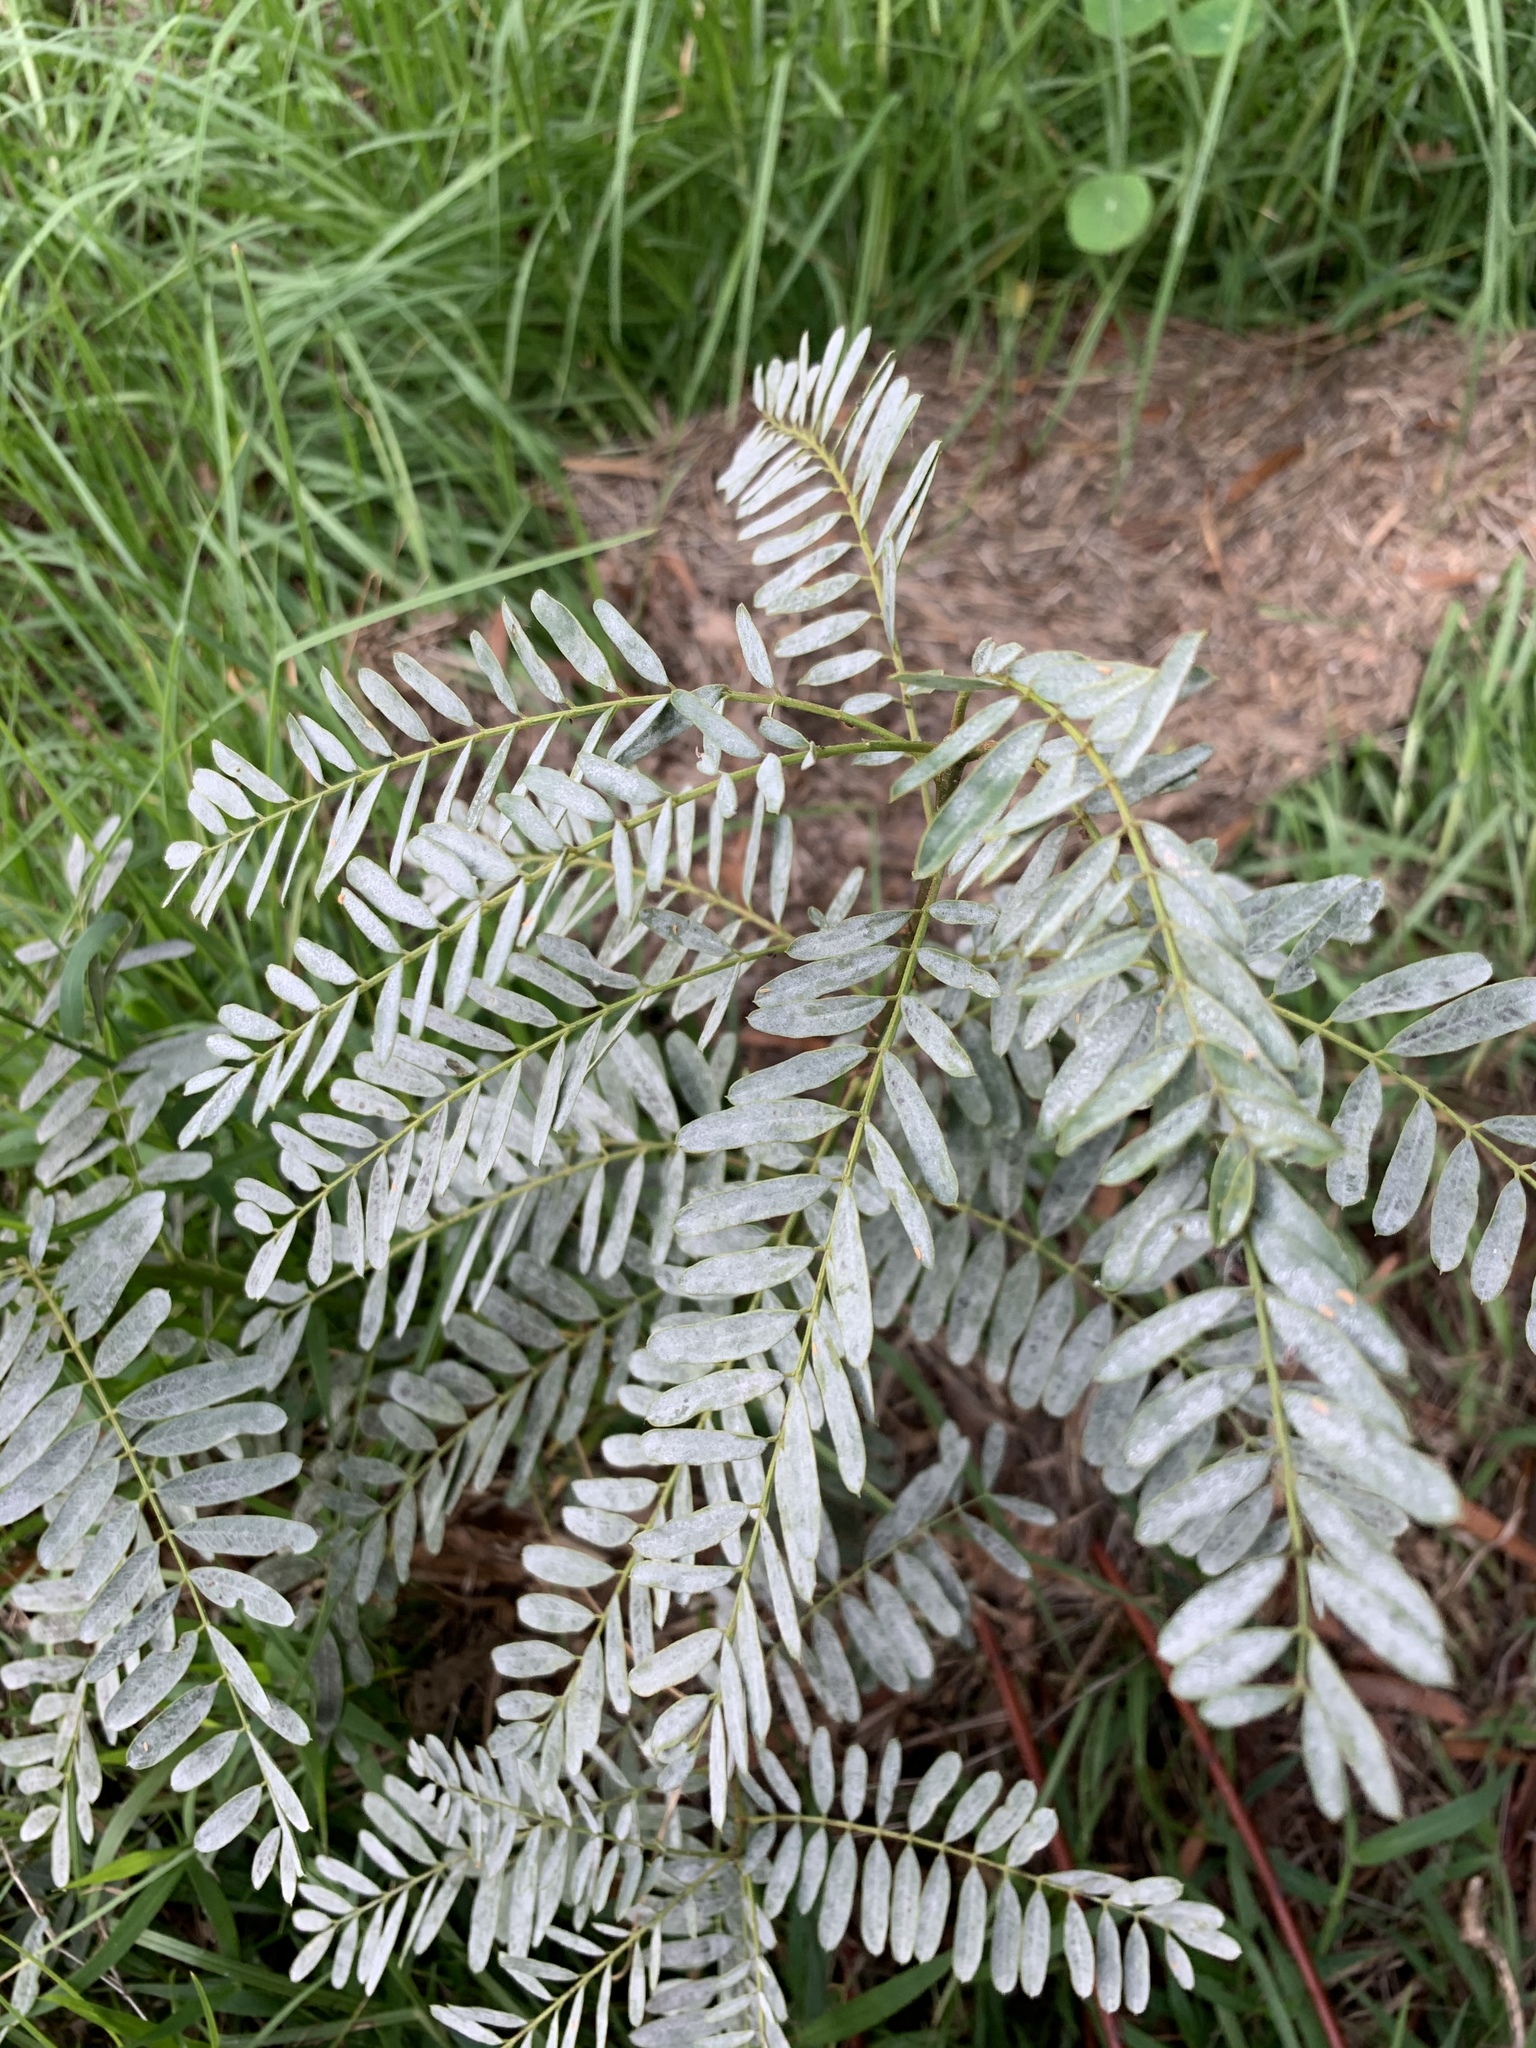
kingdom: Plantae
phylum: Tracheophyta
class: Magnoliopsida
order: Fabales
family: Fabaceae
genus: Sesbania
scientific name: Sesbania punicea
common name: Rattlebox
